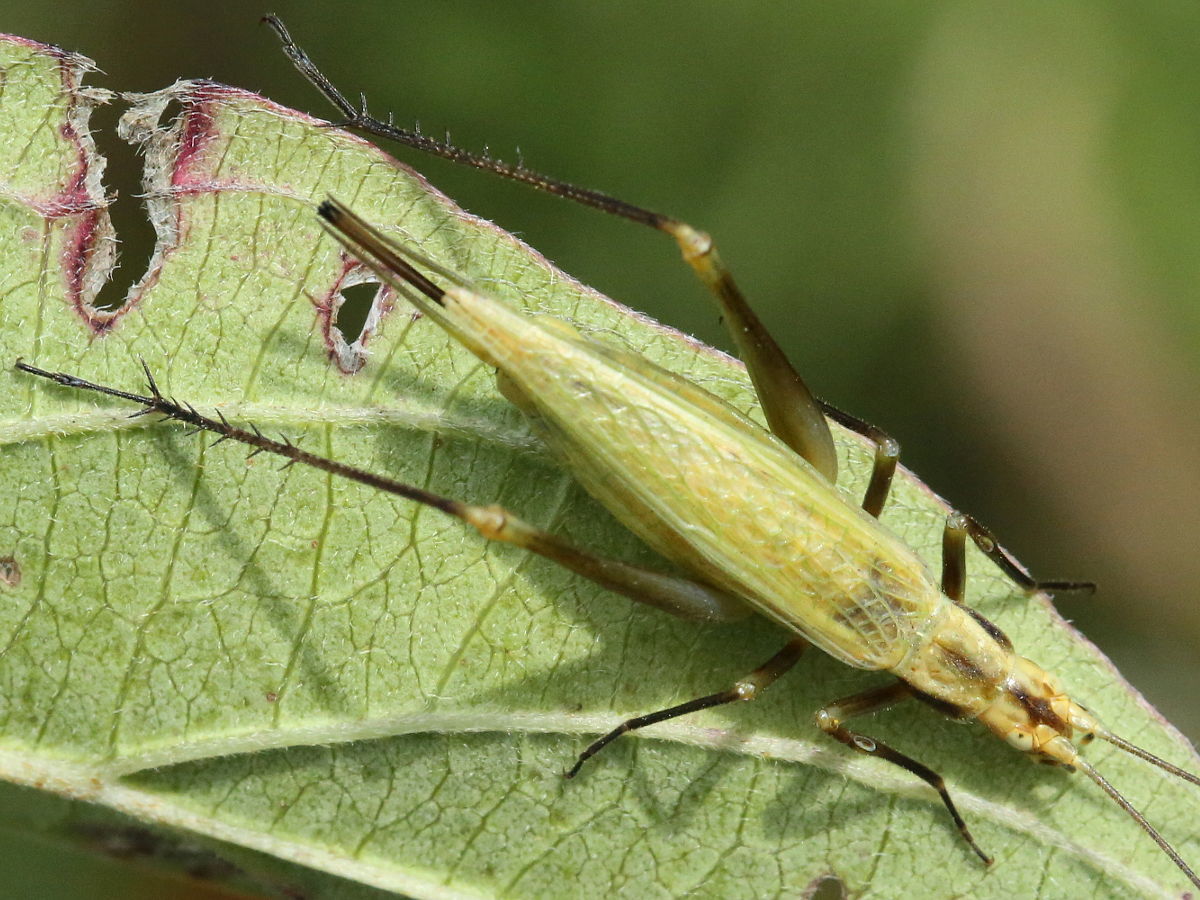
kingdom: Animalia
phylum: Arthropoda
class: Insecta
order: Orthoptera
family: Gryllidae
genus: Oecanthus
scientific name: Oecanthus forbesi
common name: Forbes’s tree cricket
